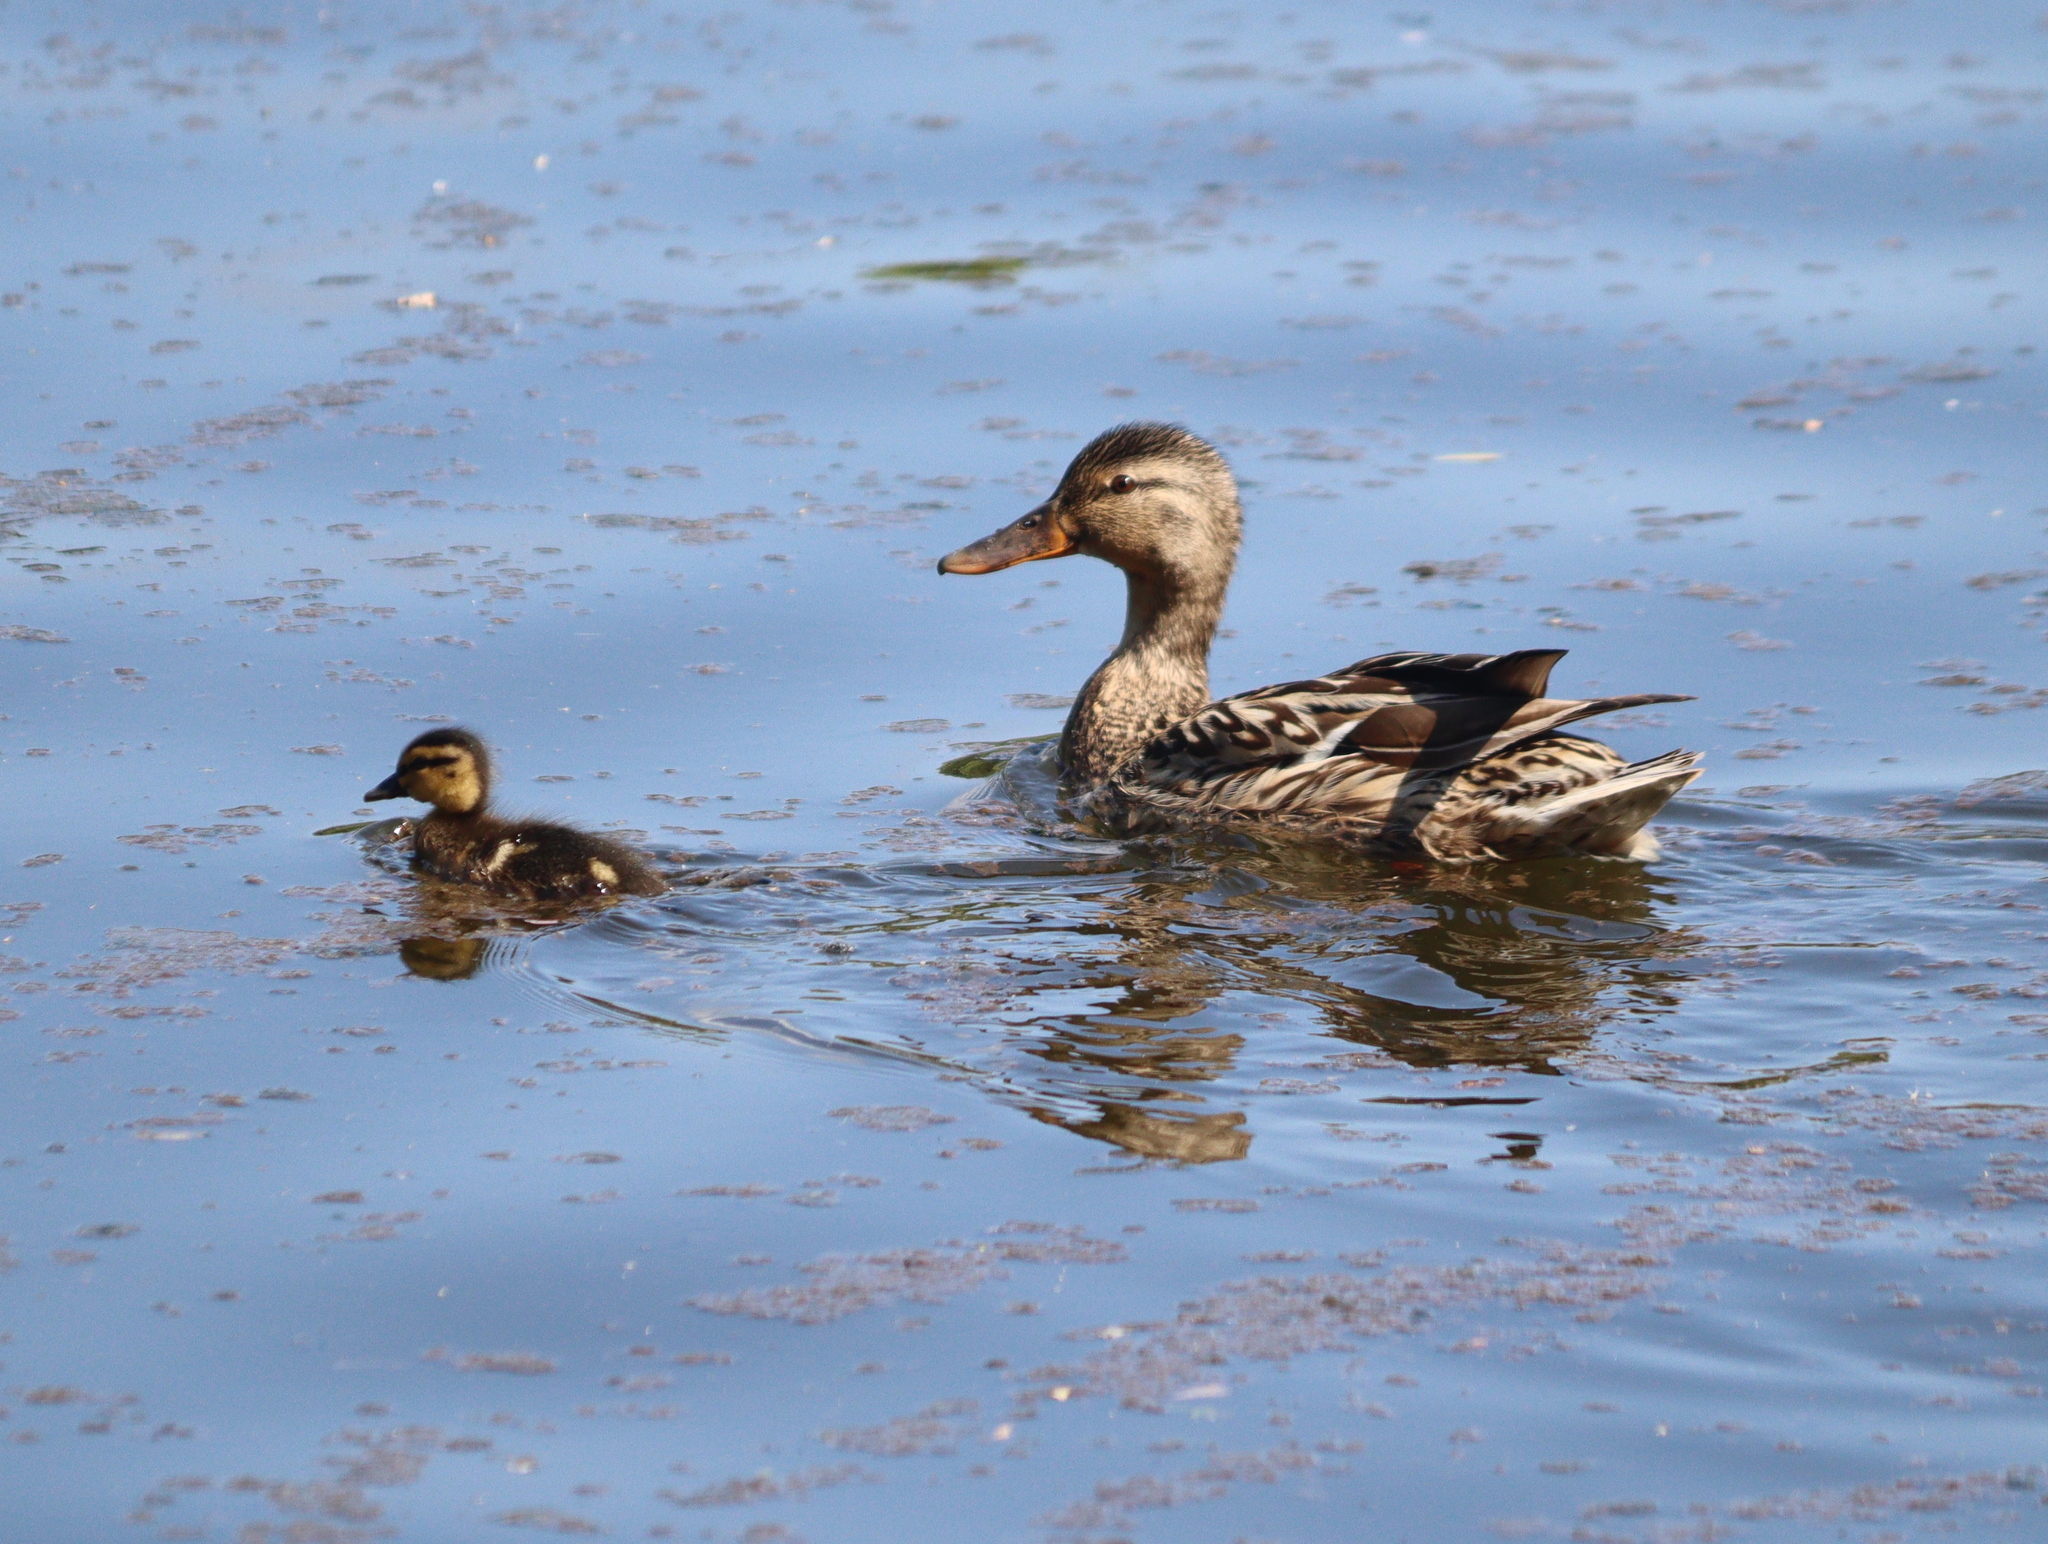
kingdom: Animalia
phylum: Chordata
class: Aves
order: Anseriformes
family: Anatidae
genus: Anas
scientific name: Anas platyrhynchos
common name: Mallard
